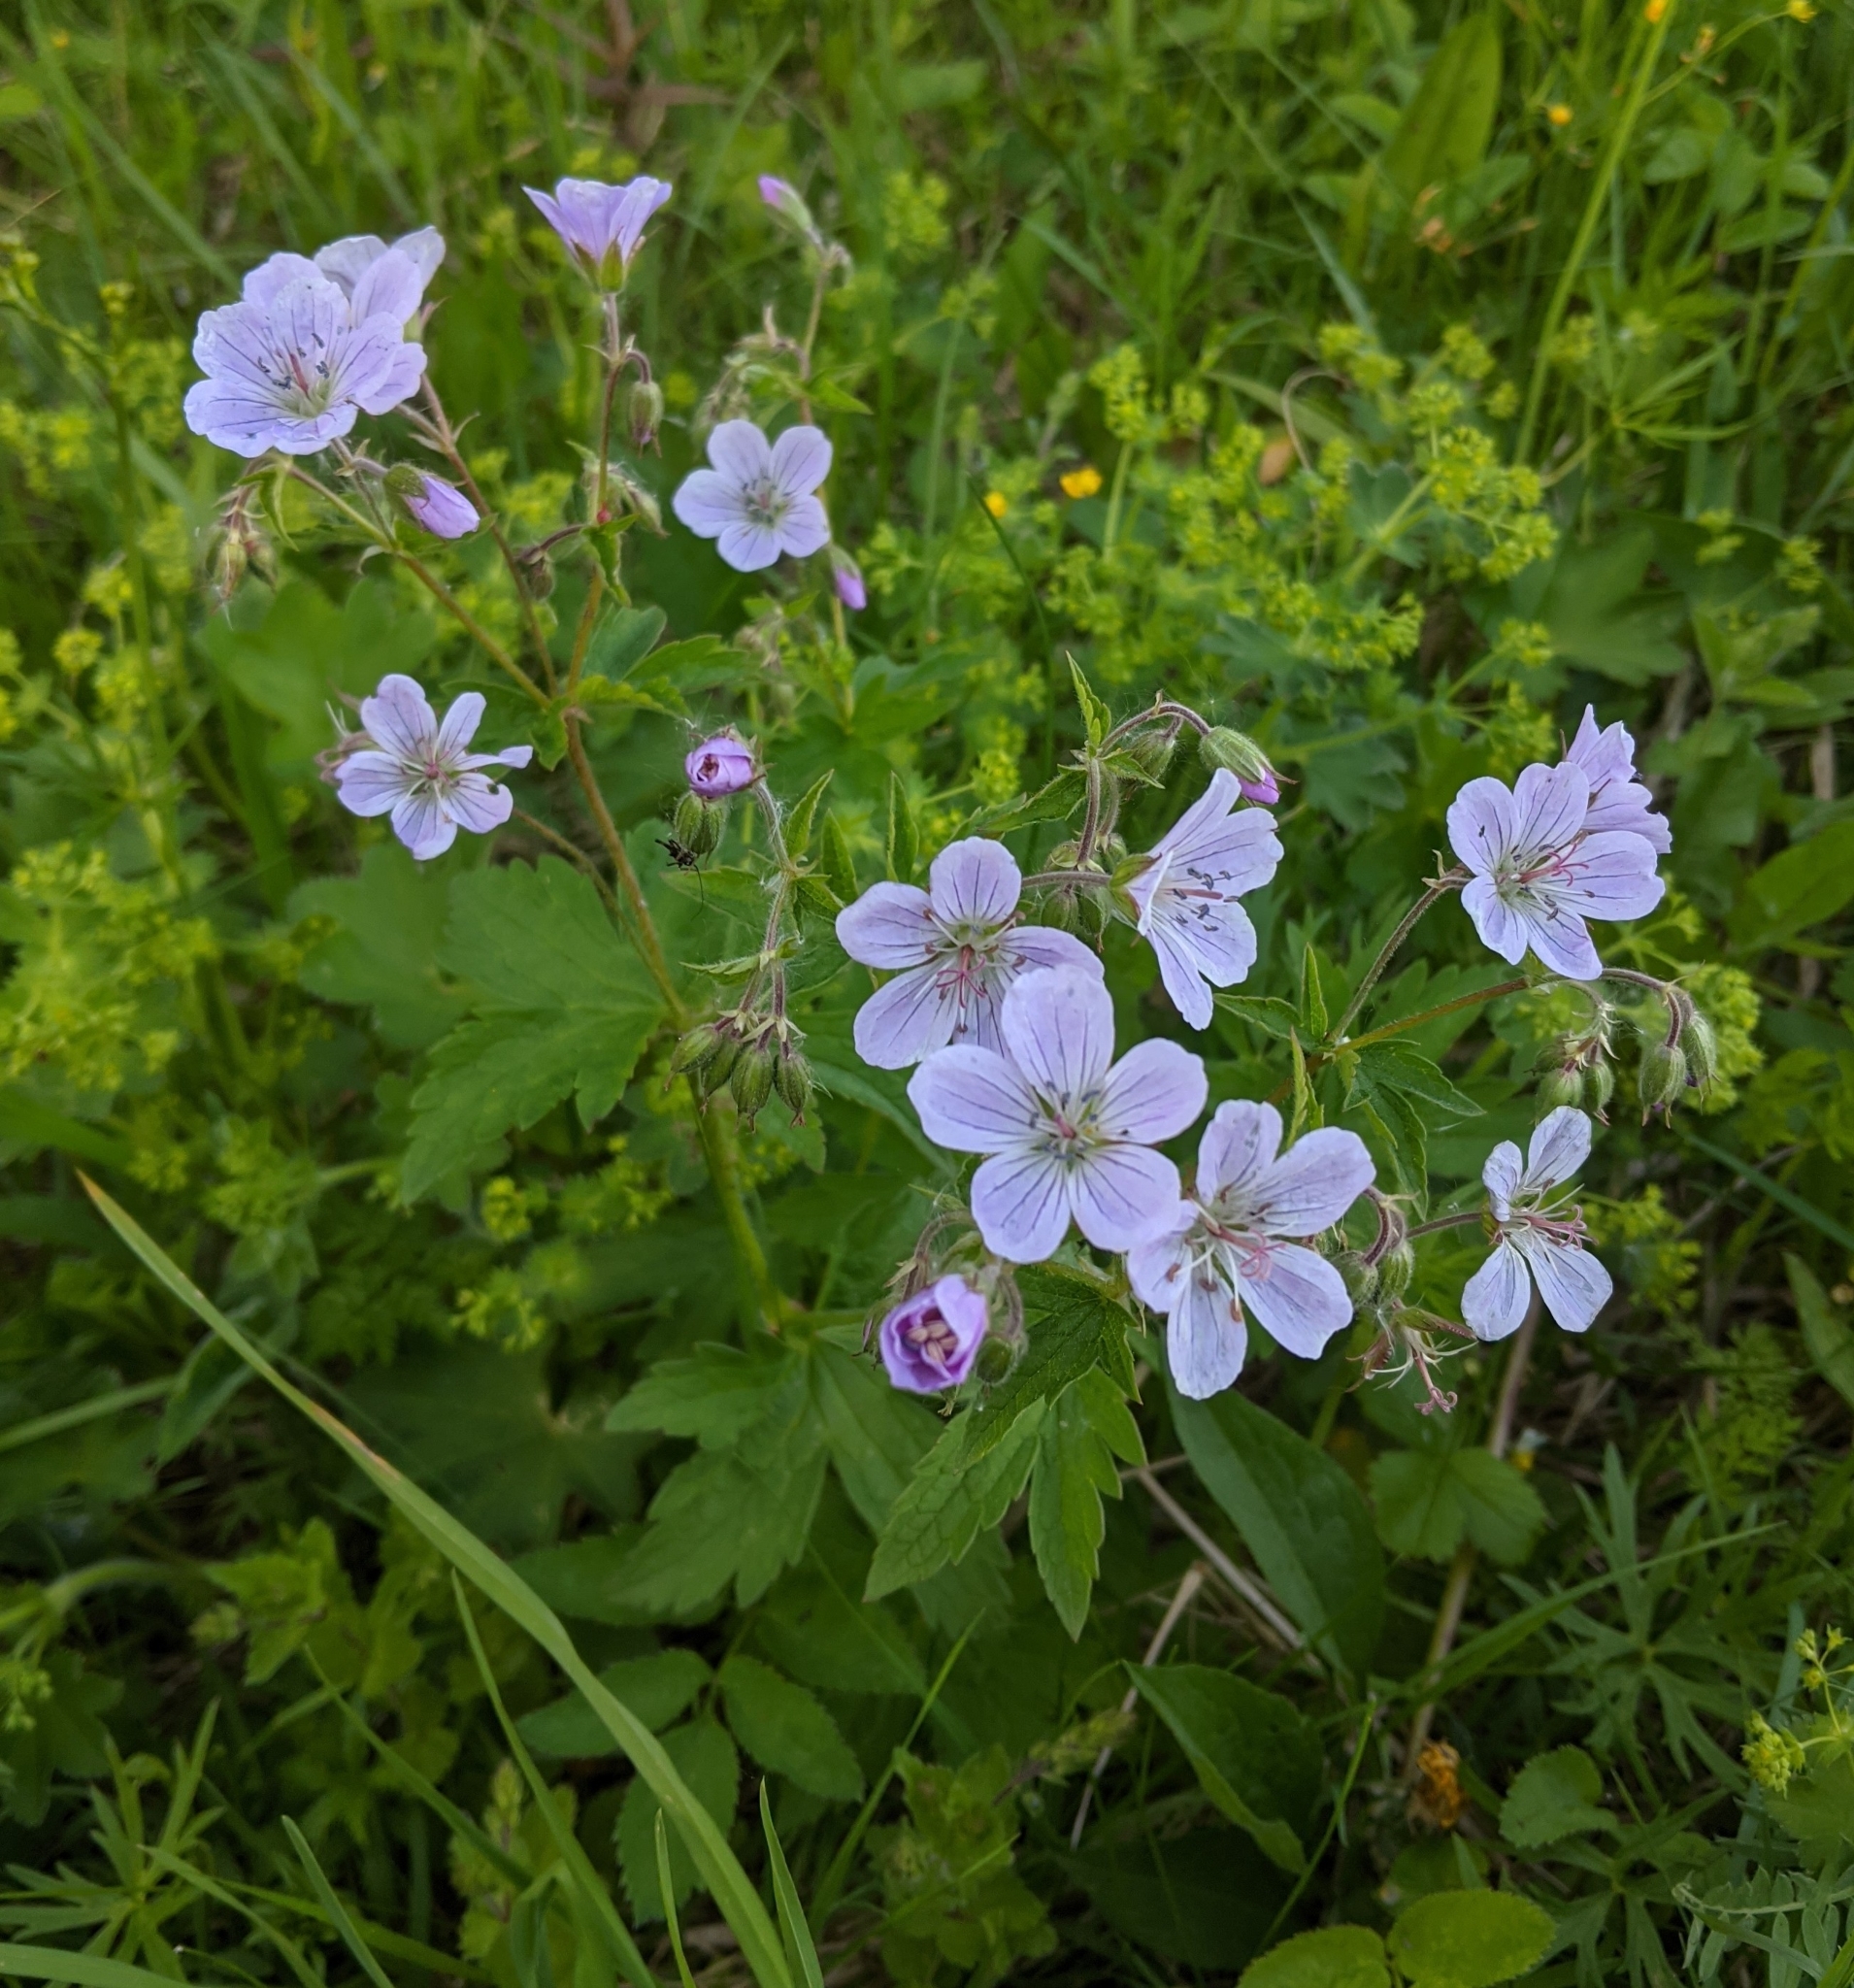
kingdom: Plantae
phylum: Tracheophyta
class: Magnoliopsida
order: Geraniales
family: Geraniaceae
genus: Geranium
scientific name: Geranium sylvaticum
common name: Wood crane's-bill
